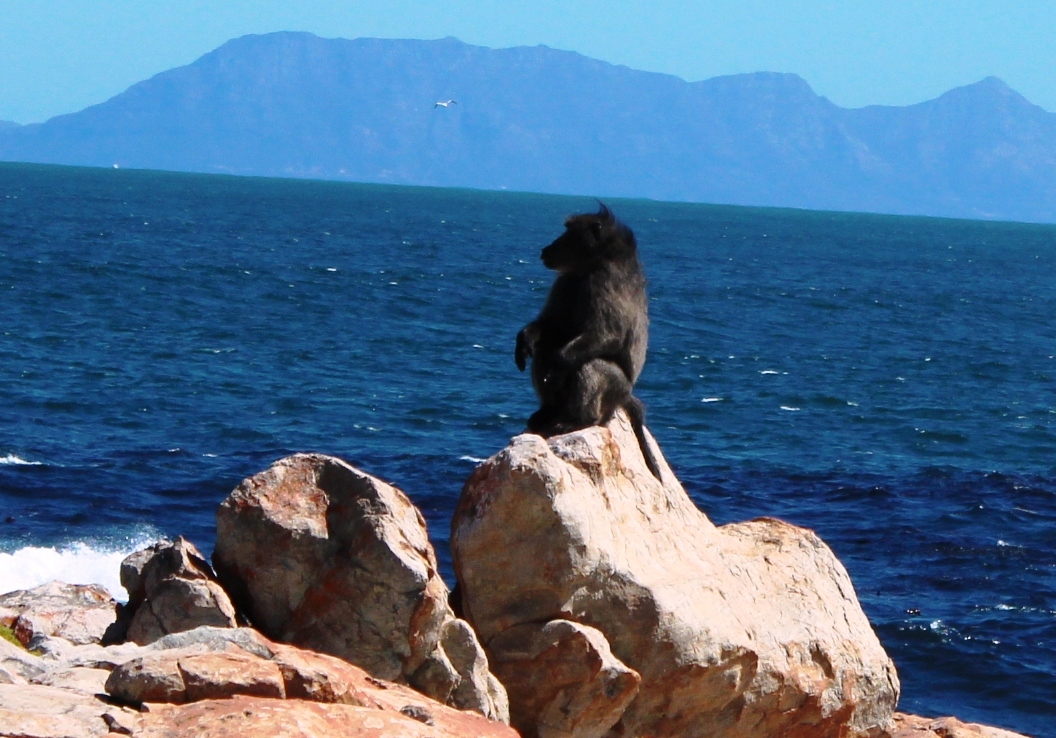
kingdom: Animalia
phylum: Chordata
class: Mammalia
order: Primates
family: Cercopithecidae
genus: Papio
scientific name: Papio ursinus
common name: Chacma baboon
